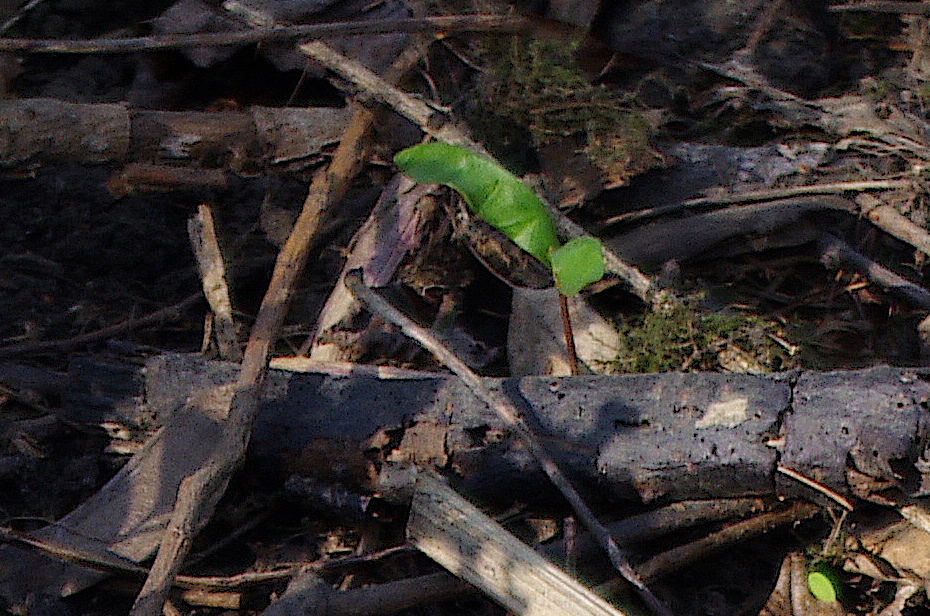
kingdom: Plantae
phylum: Tracheophyta
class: Magnoliopsida
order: Sapindales
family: Sapindaceae
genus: Acer
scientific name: Acer platanoides
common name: Norway maple
